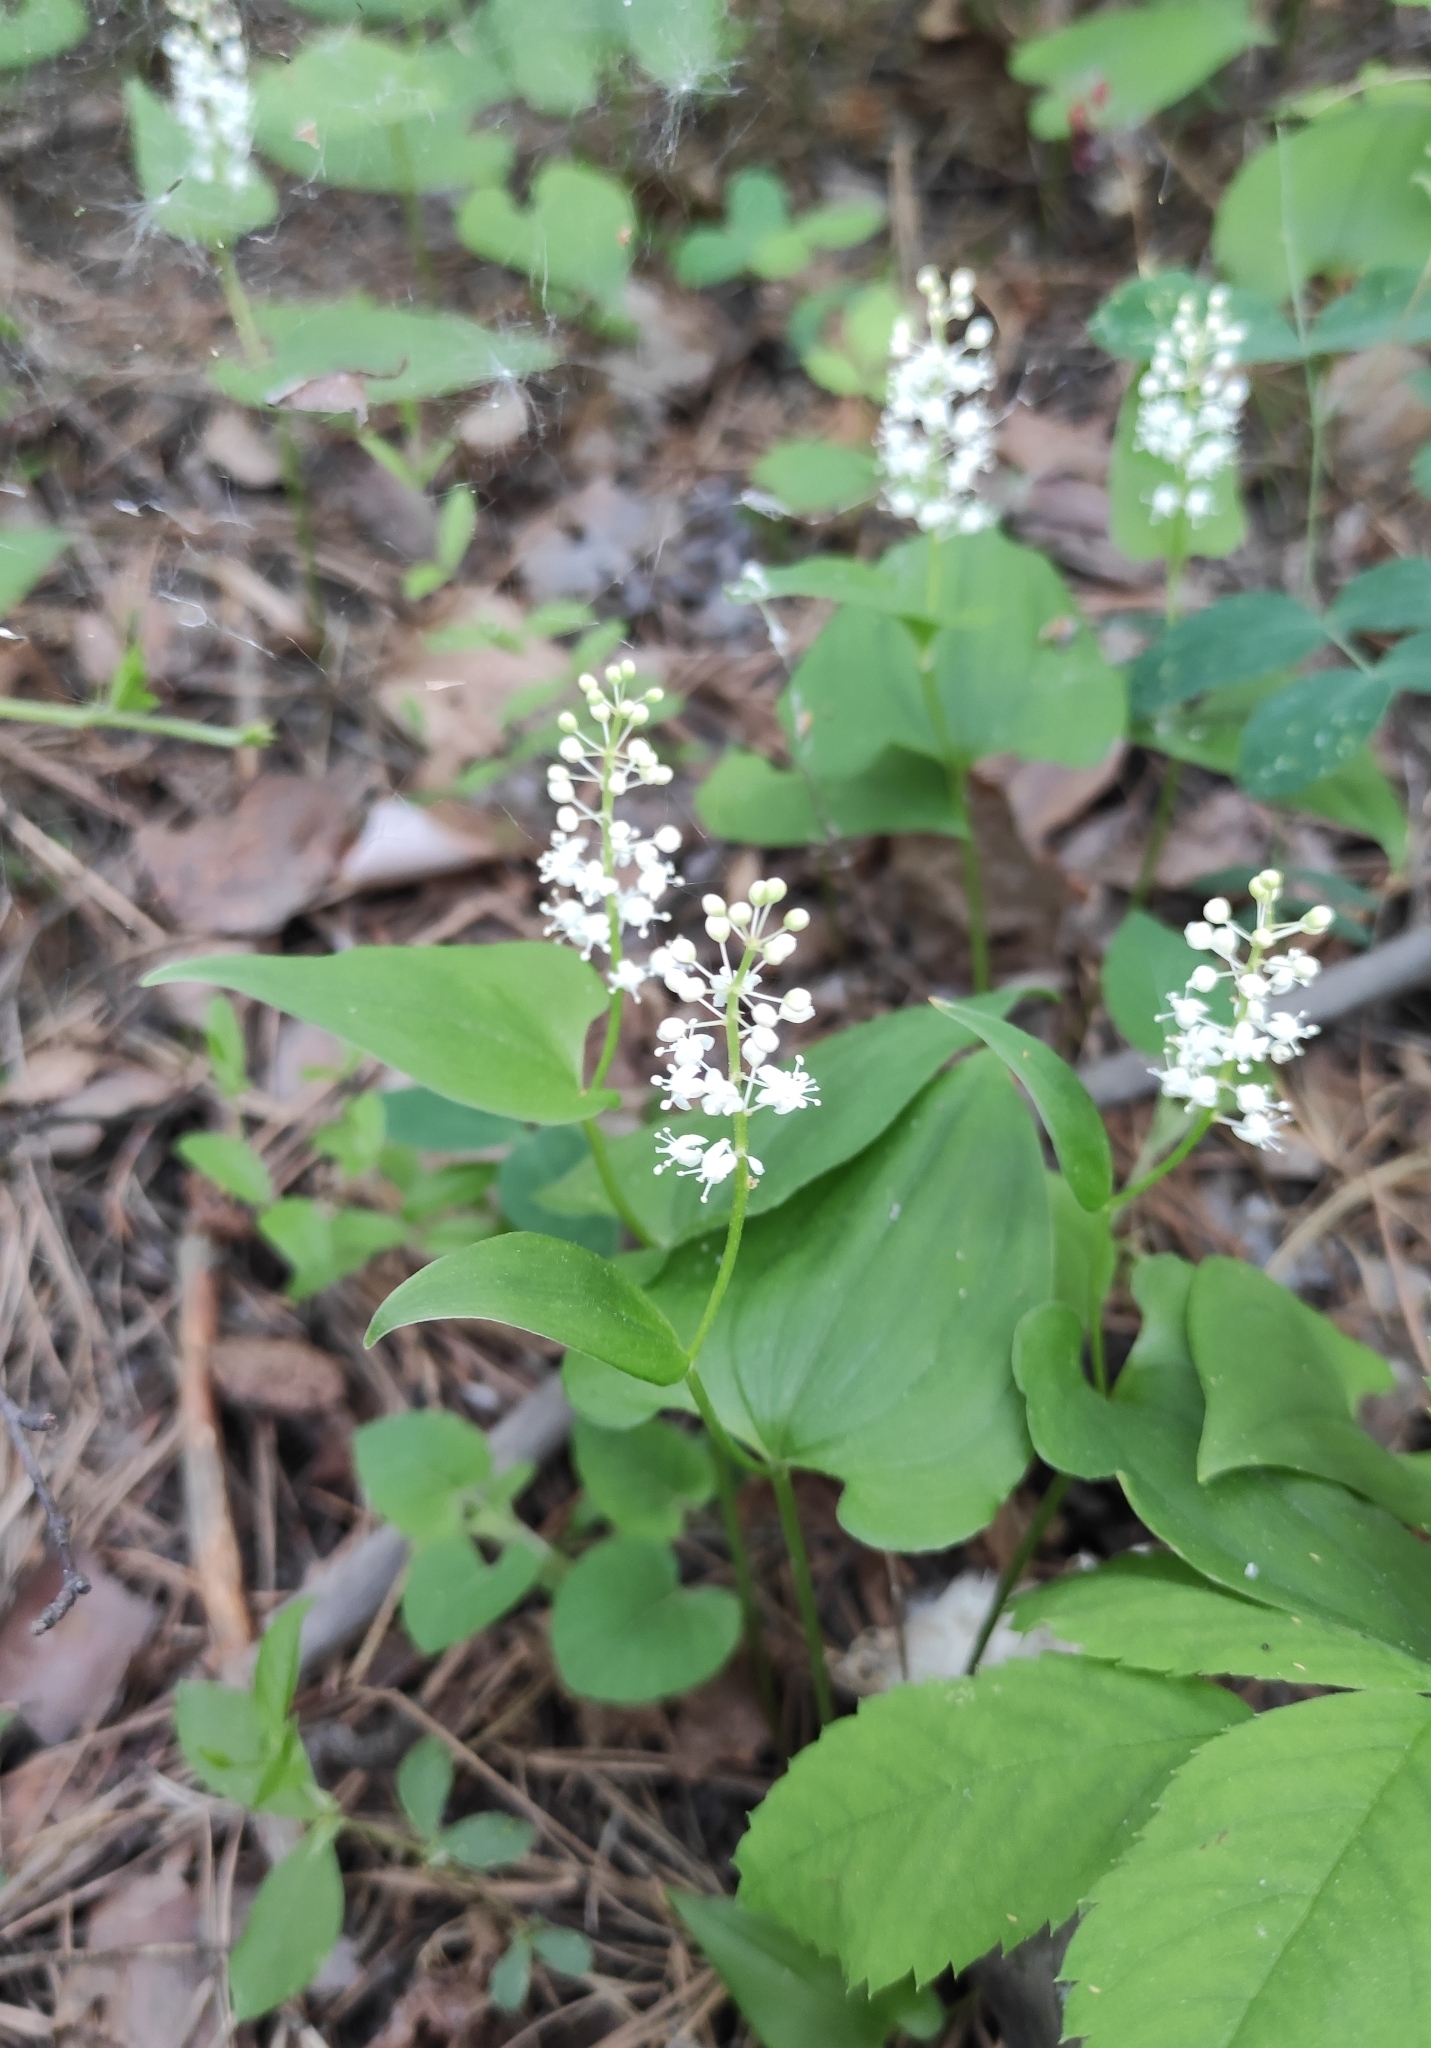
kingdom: Plantae
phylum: Tracheophyta
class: Liliopsida
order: Asparagales
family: Asparagaceae
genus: Maianthemum
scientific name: Maianthemum bifolium
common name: May lily
